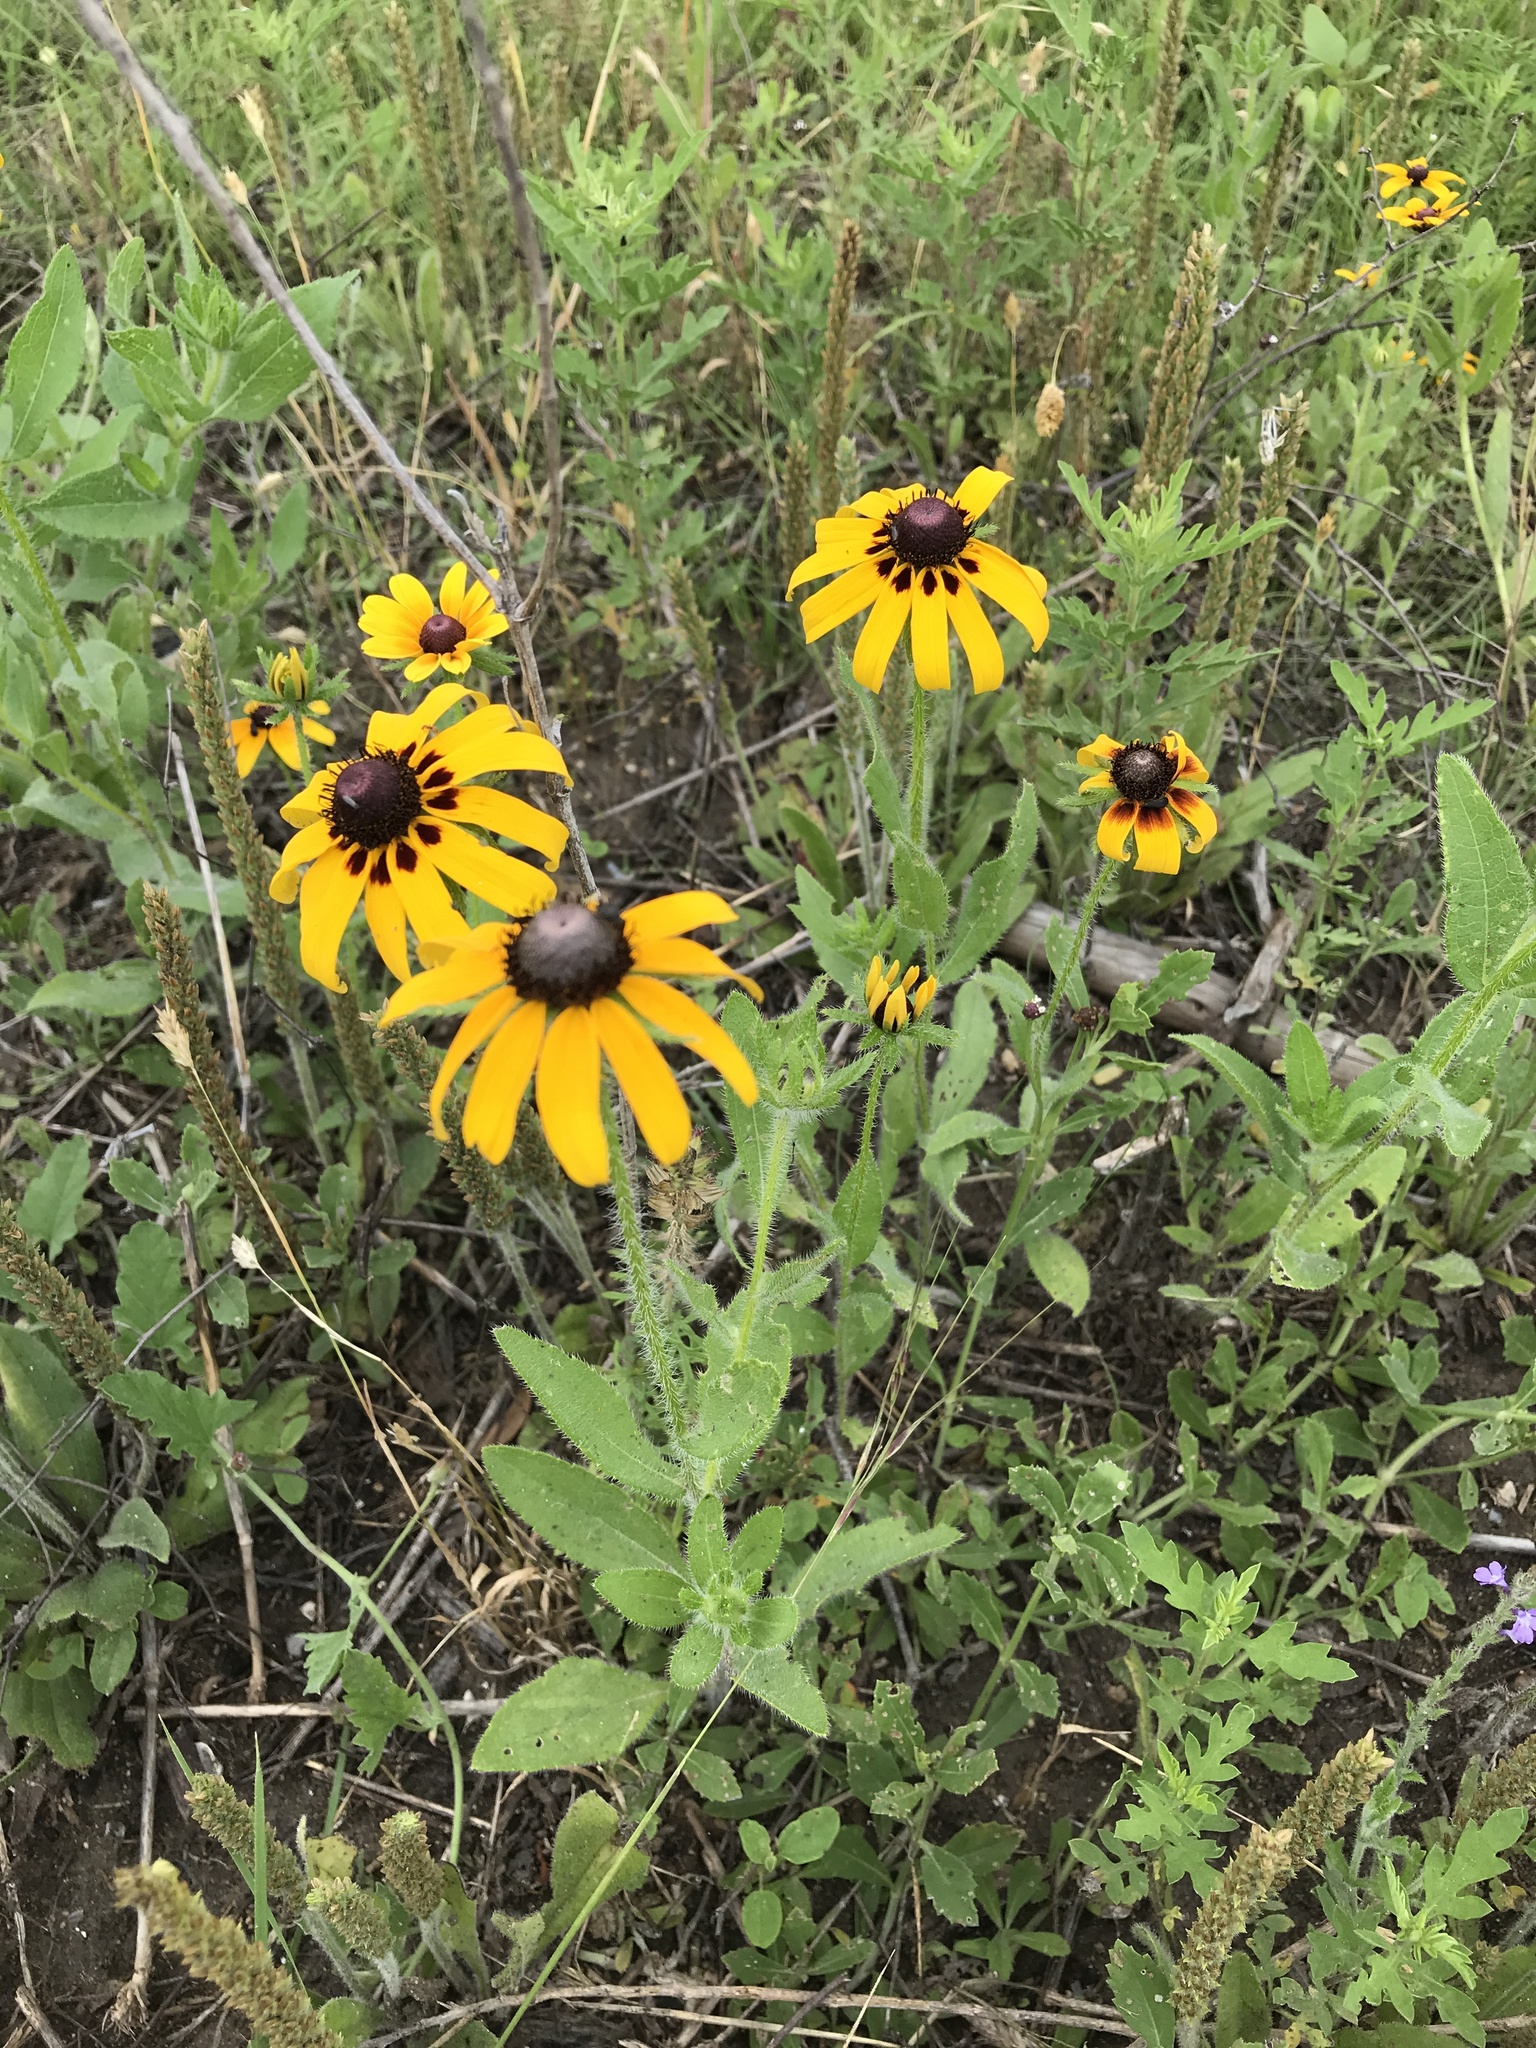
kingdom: Plantae
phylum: Tracheophyta
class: Magnoliopsida
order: Asterales
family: Asteraceae
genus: Rudbeckia
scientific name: Rudbeckia hirta
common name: Black-eyed-susan
